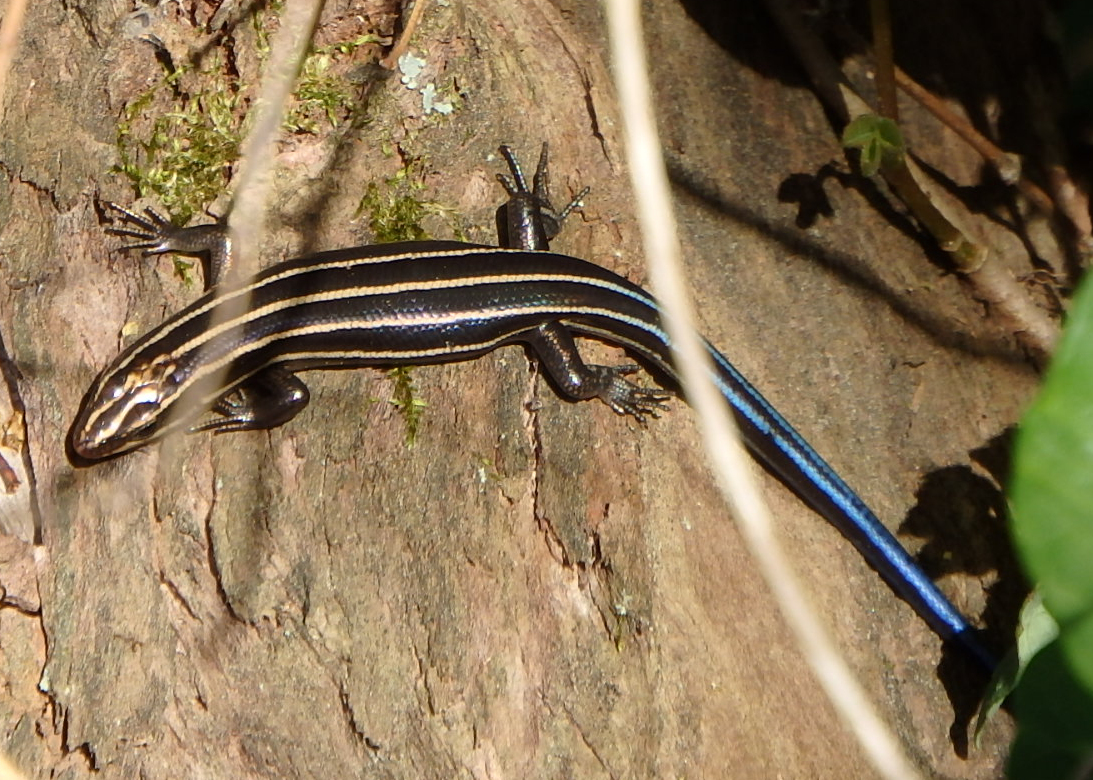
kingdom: Animalia
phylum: Chordata
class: Squamata
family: Scincidae
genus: Plestiodon
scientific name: Plestiodon fasciatus
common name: Five-lined skink
